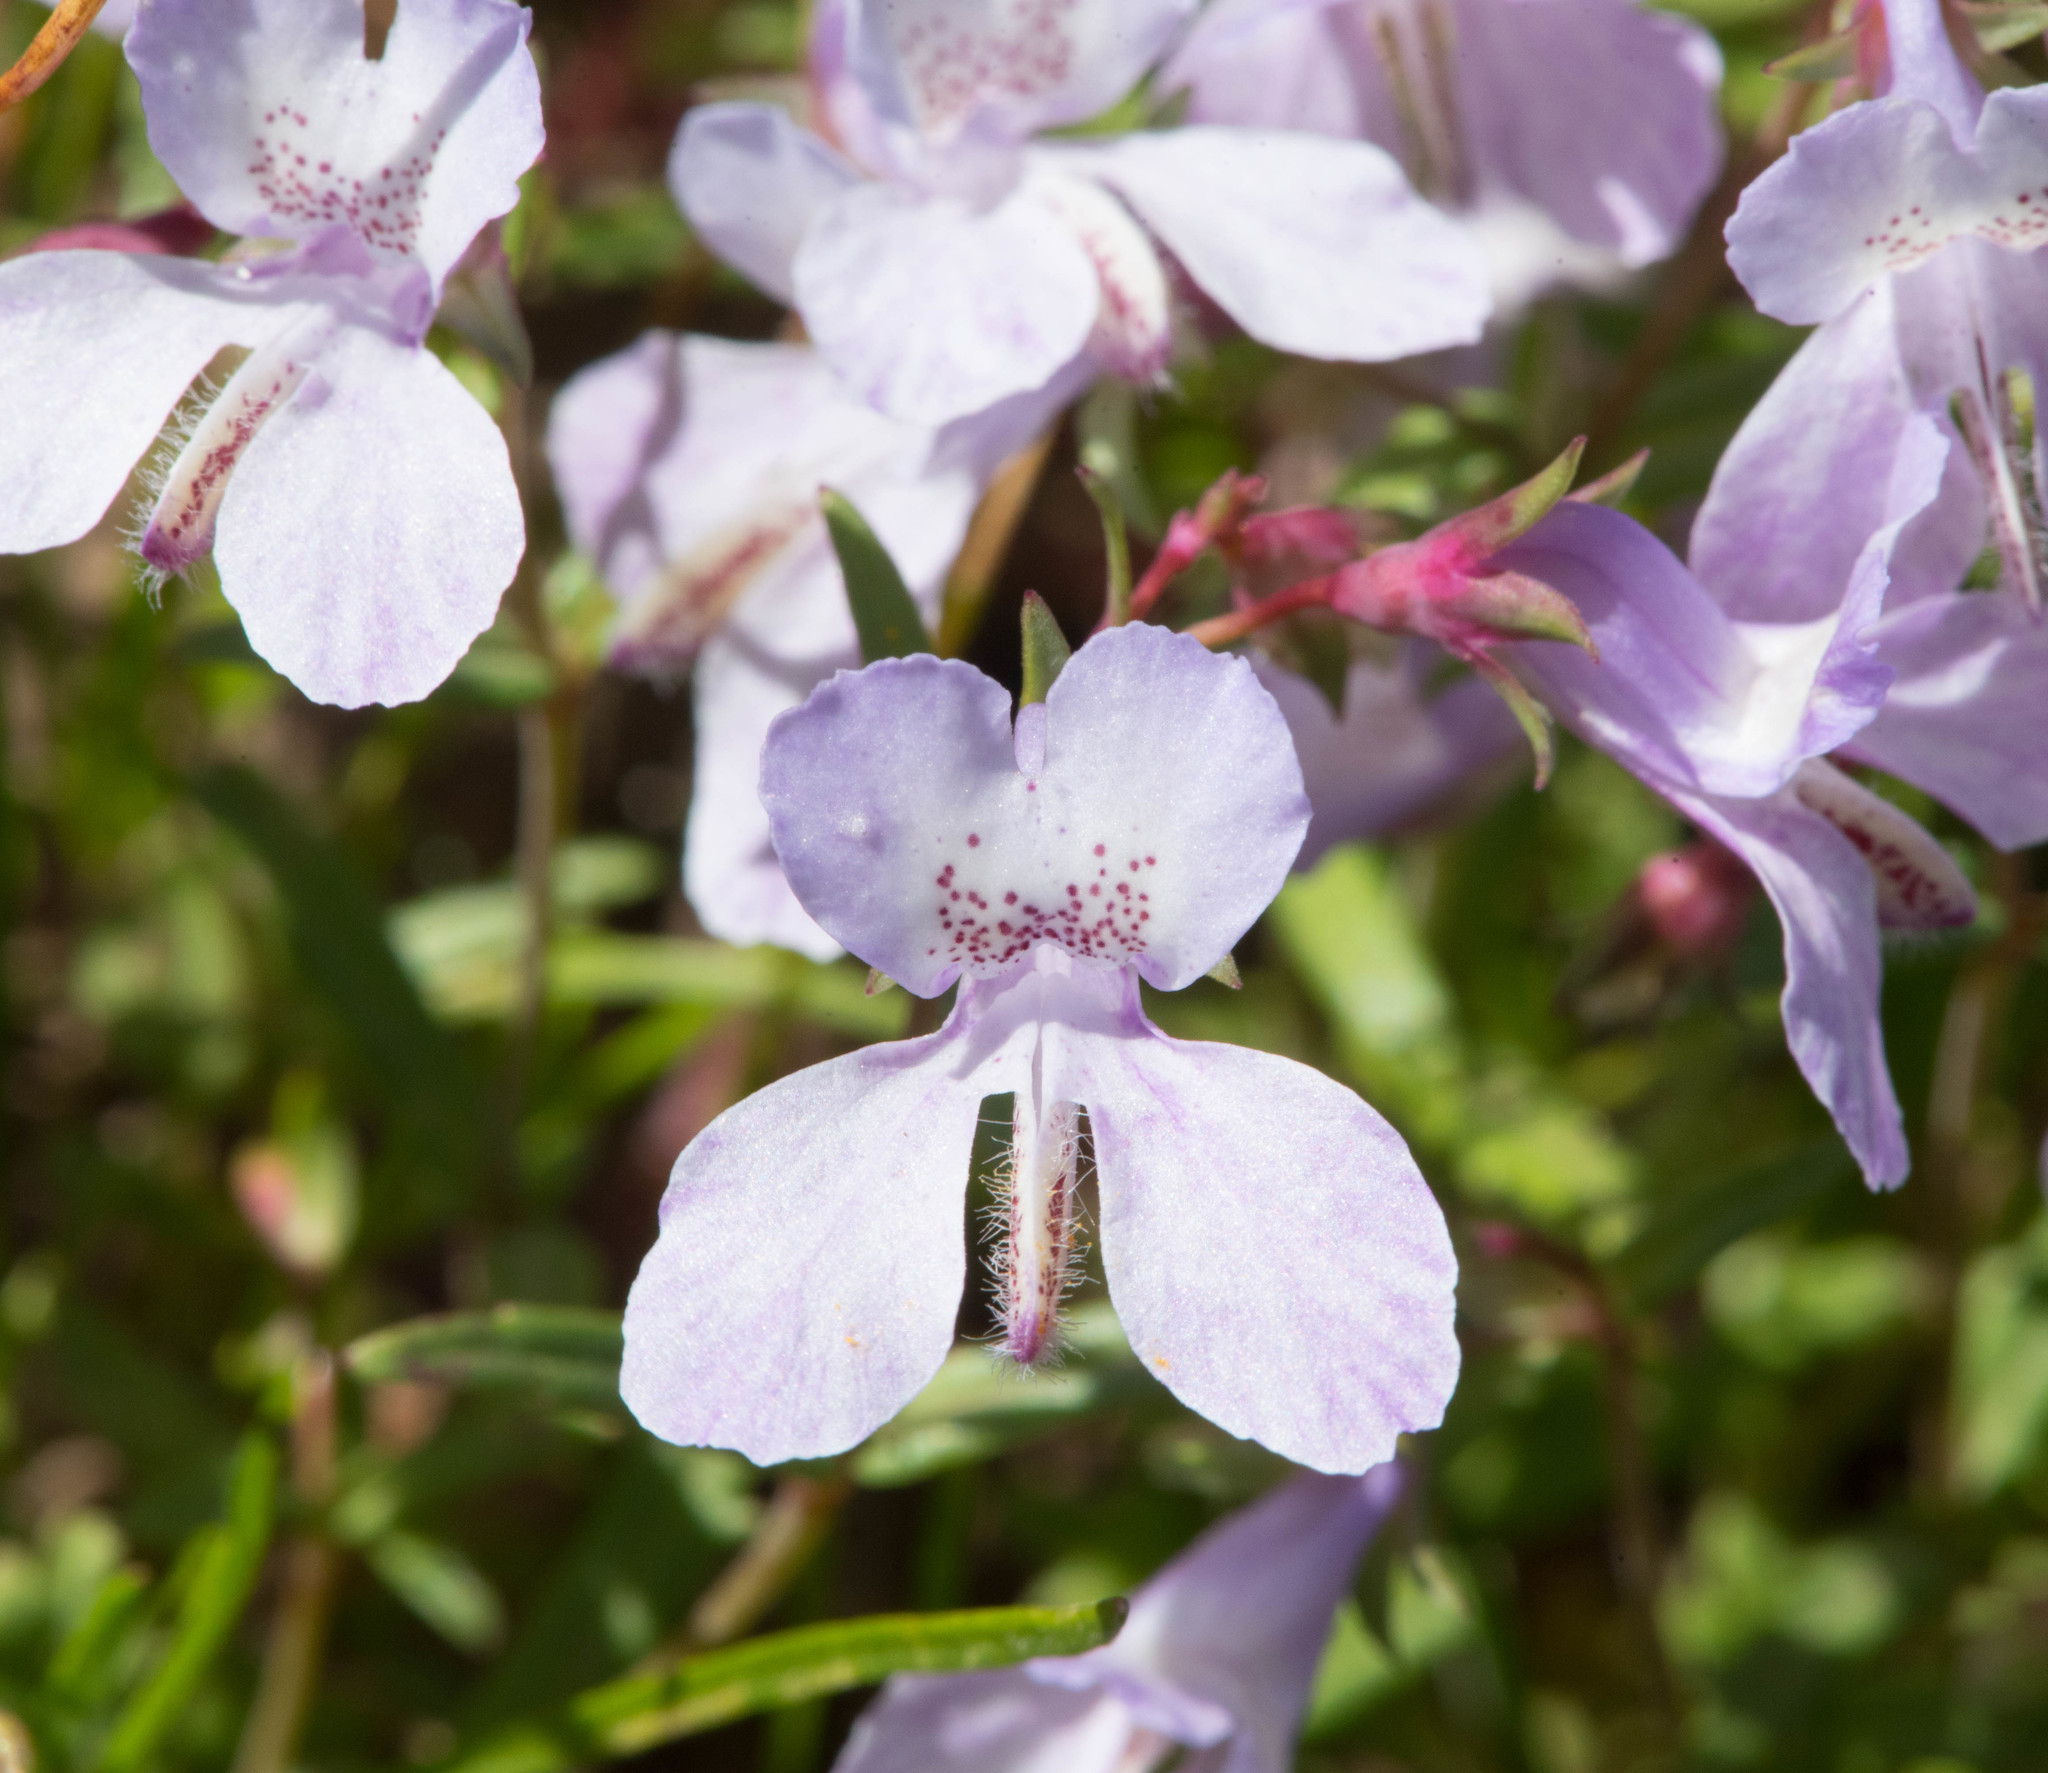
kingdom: Plantae
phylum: Tracheophyta
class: Magnoliopsida
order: Lamiales
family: Plantaginaceae
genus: Collinsia
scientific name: Collinsia sparsiflora
